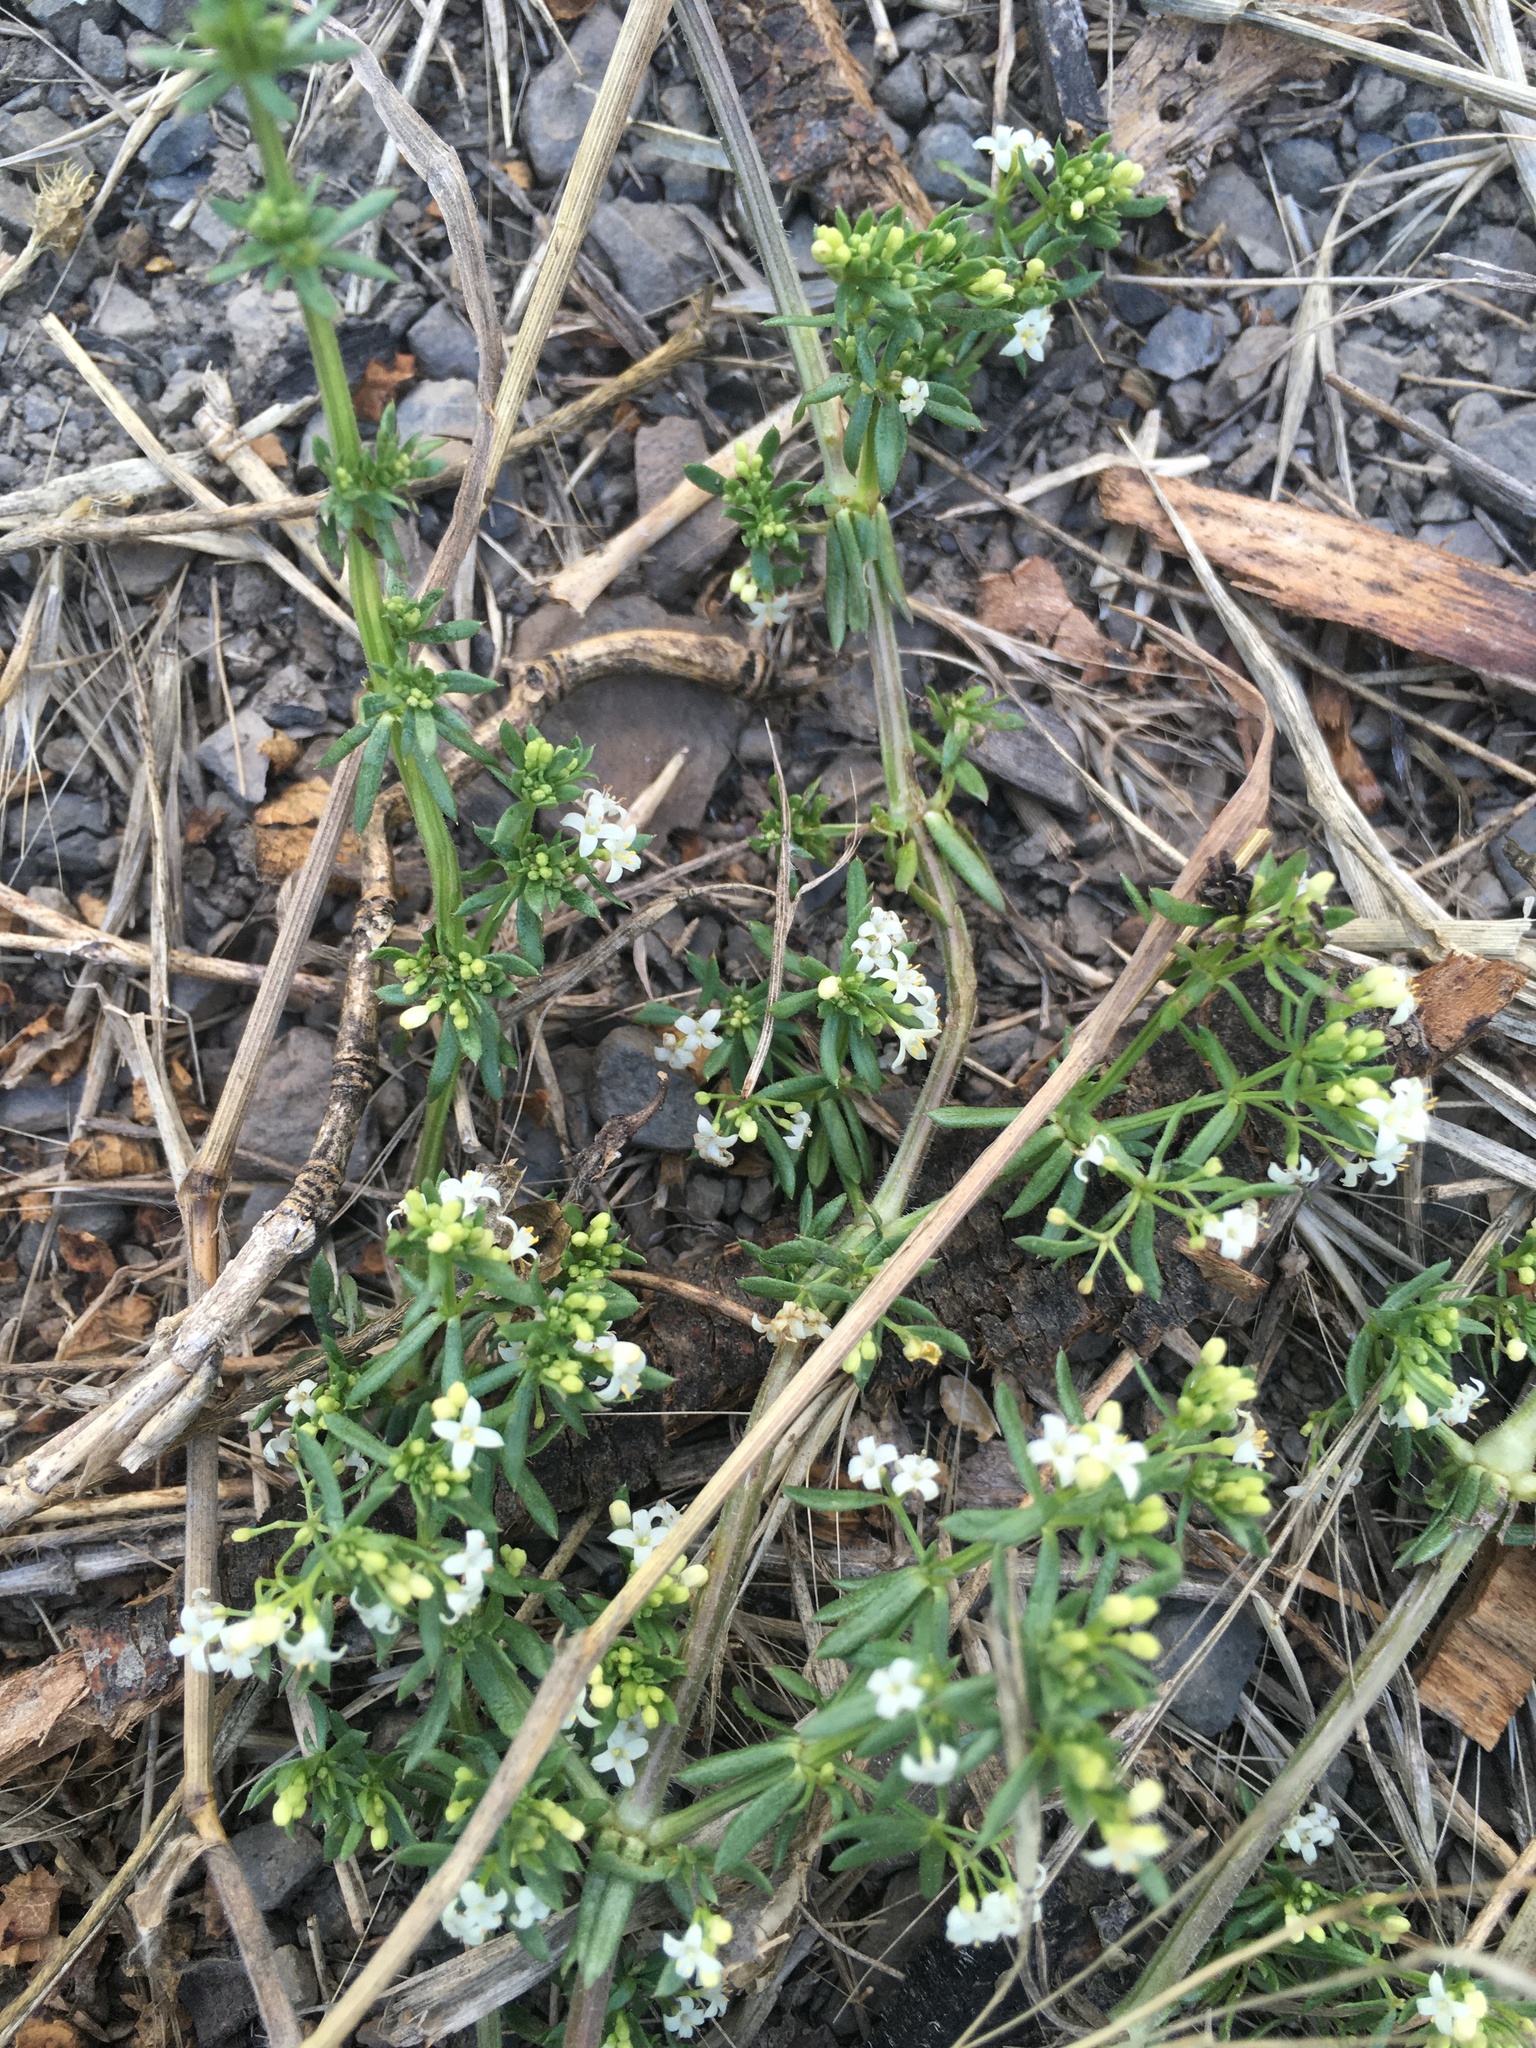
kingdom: Plantae
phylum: Tracheophyta
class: Magnoliopsida
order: Gentianales
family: Rubiaceae
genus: Galium
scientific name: Galium humifusum
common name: Spreading bedstraw
